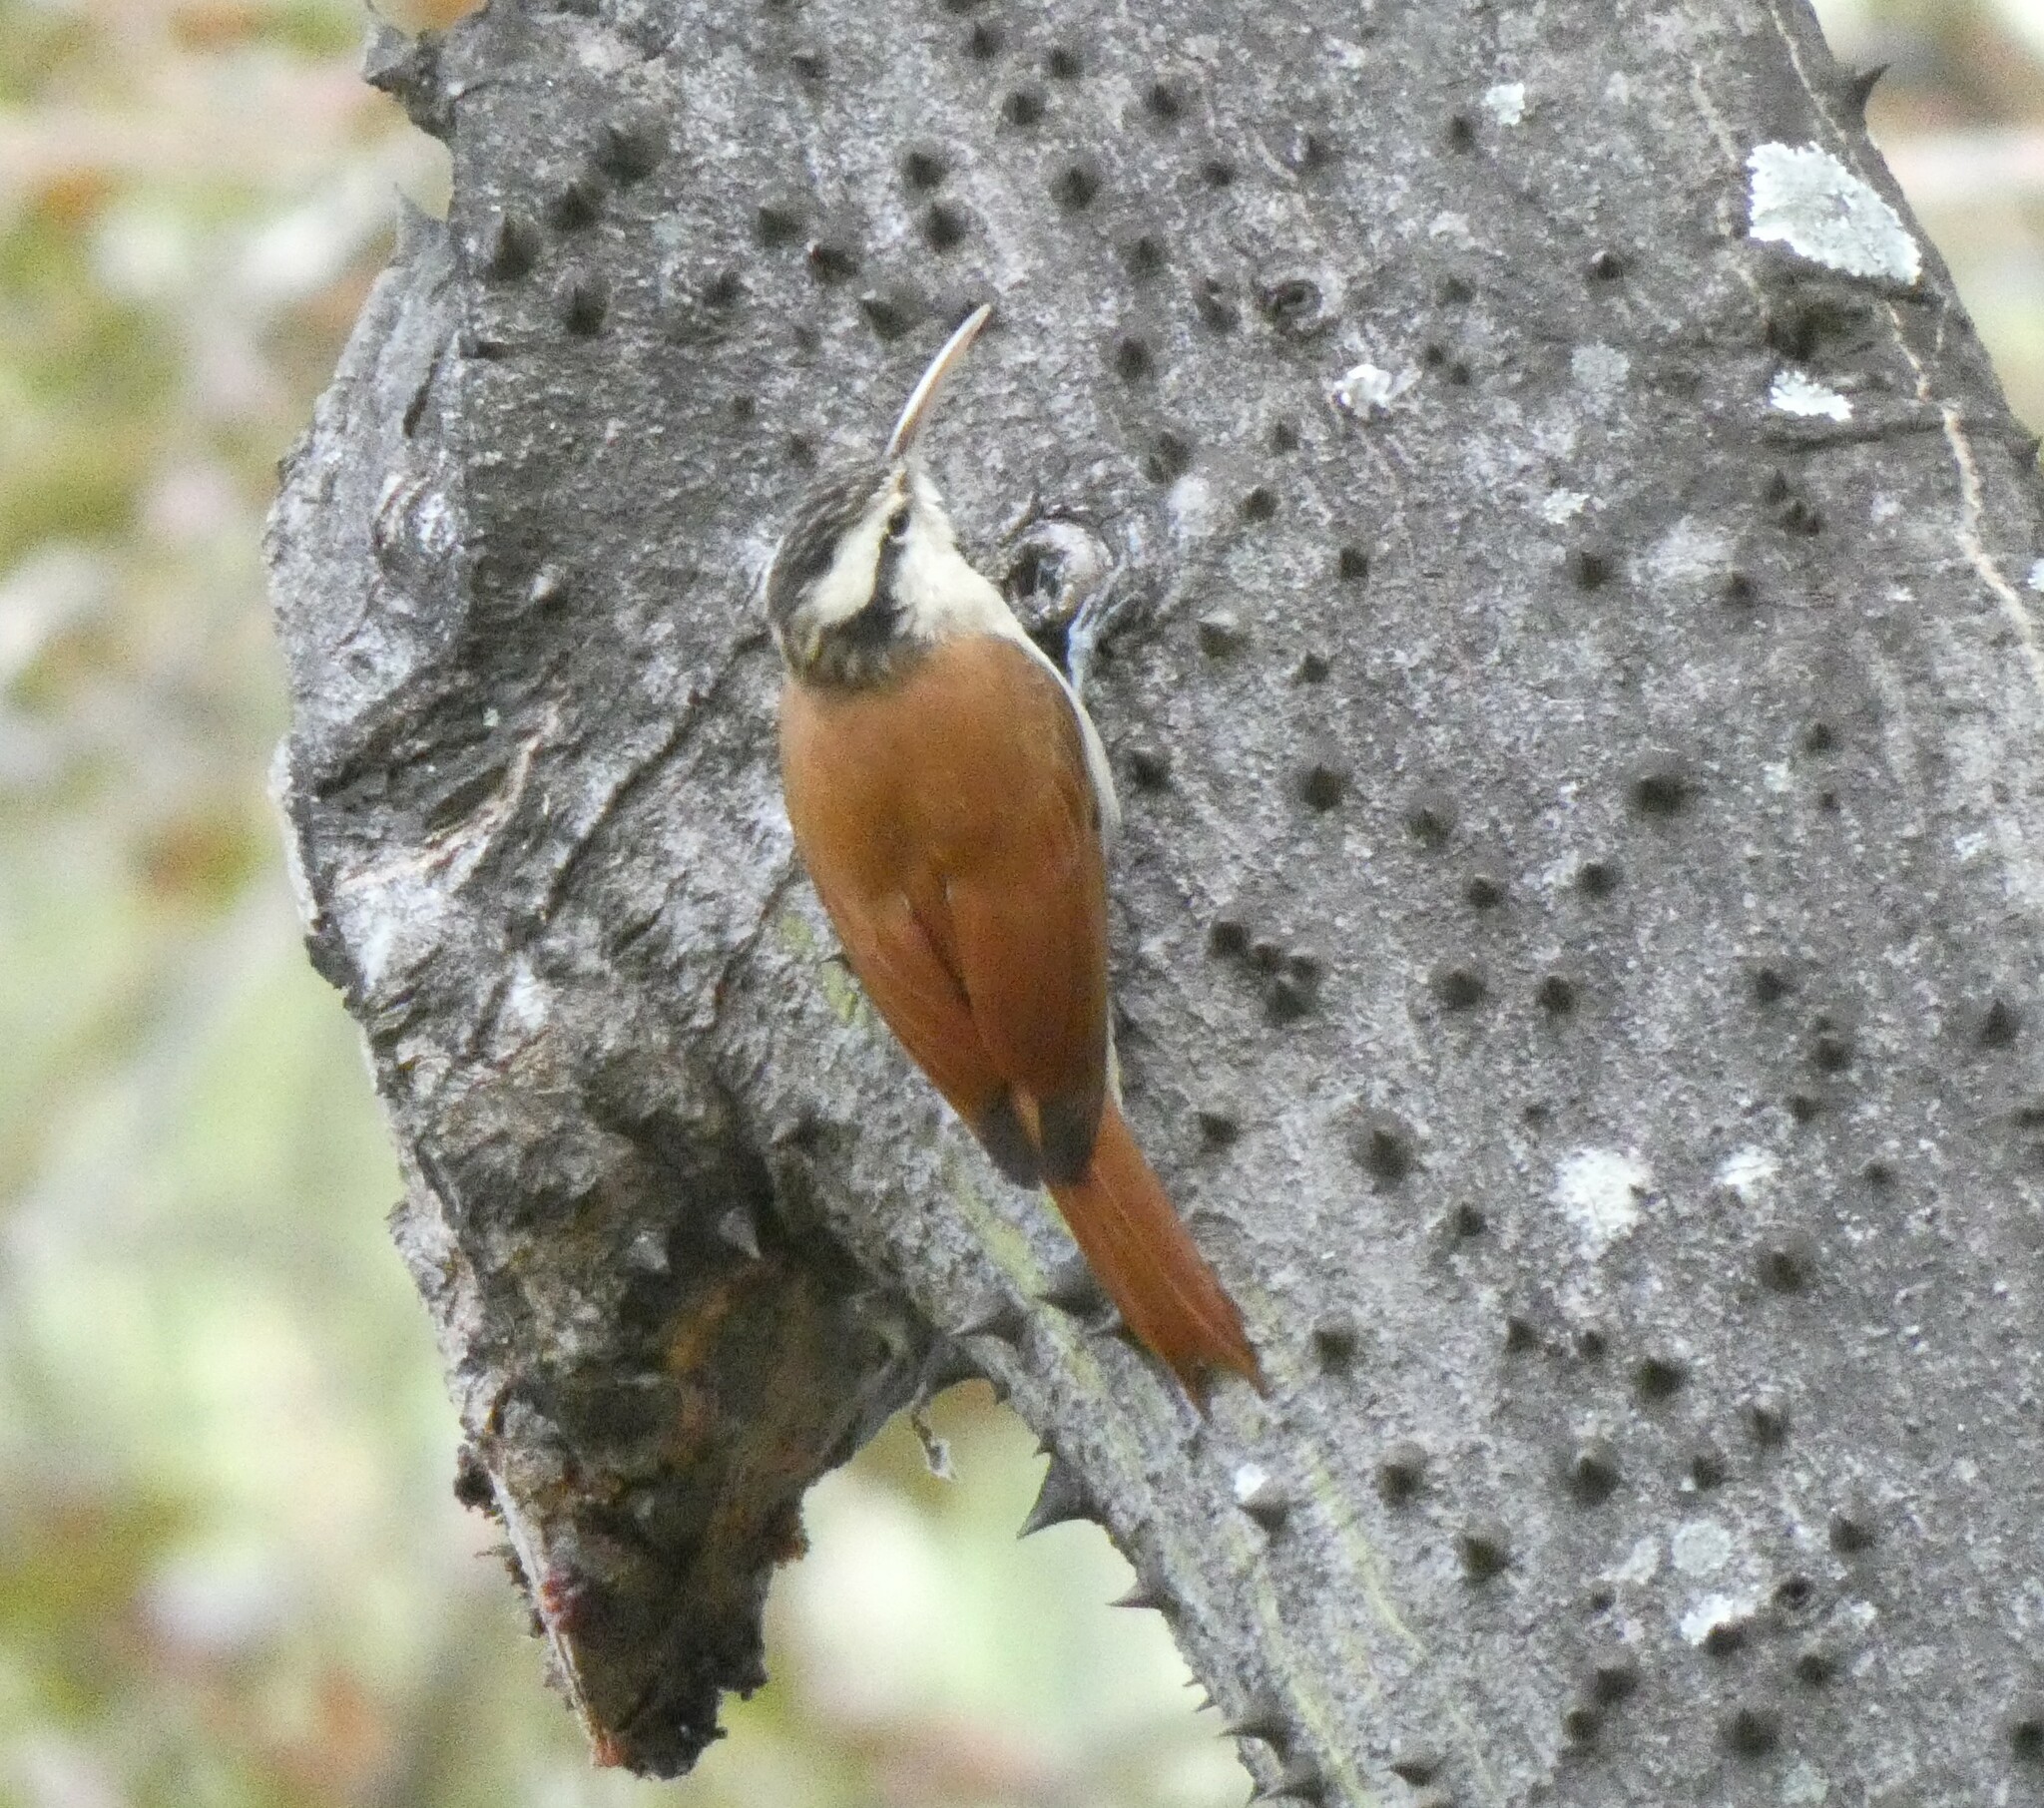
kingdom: Animalia
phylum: Chordata
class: Aves
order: Passeriformes
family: Furnariidae
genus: Lepidocolaptes
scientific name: Lepidocolaptes angustirostris
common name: Narrow-billed woodcreeper
